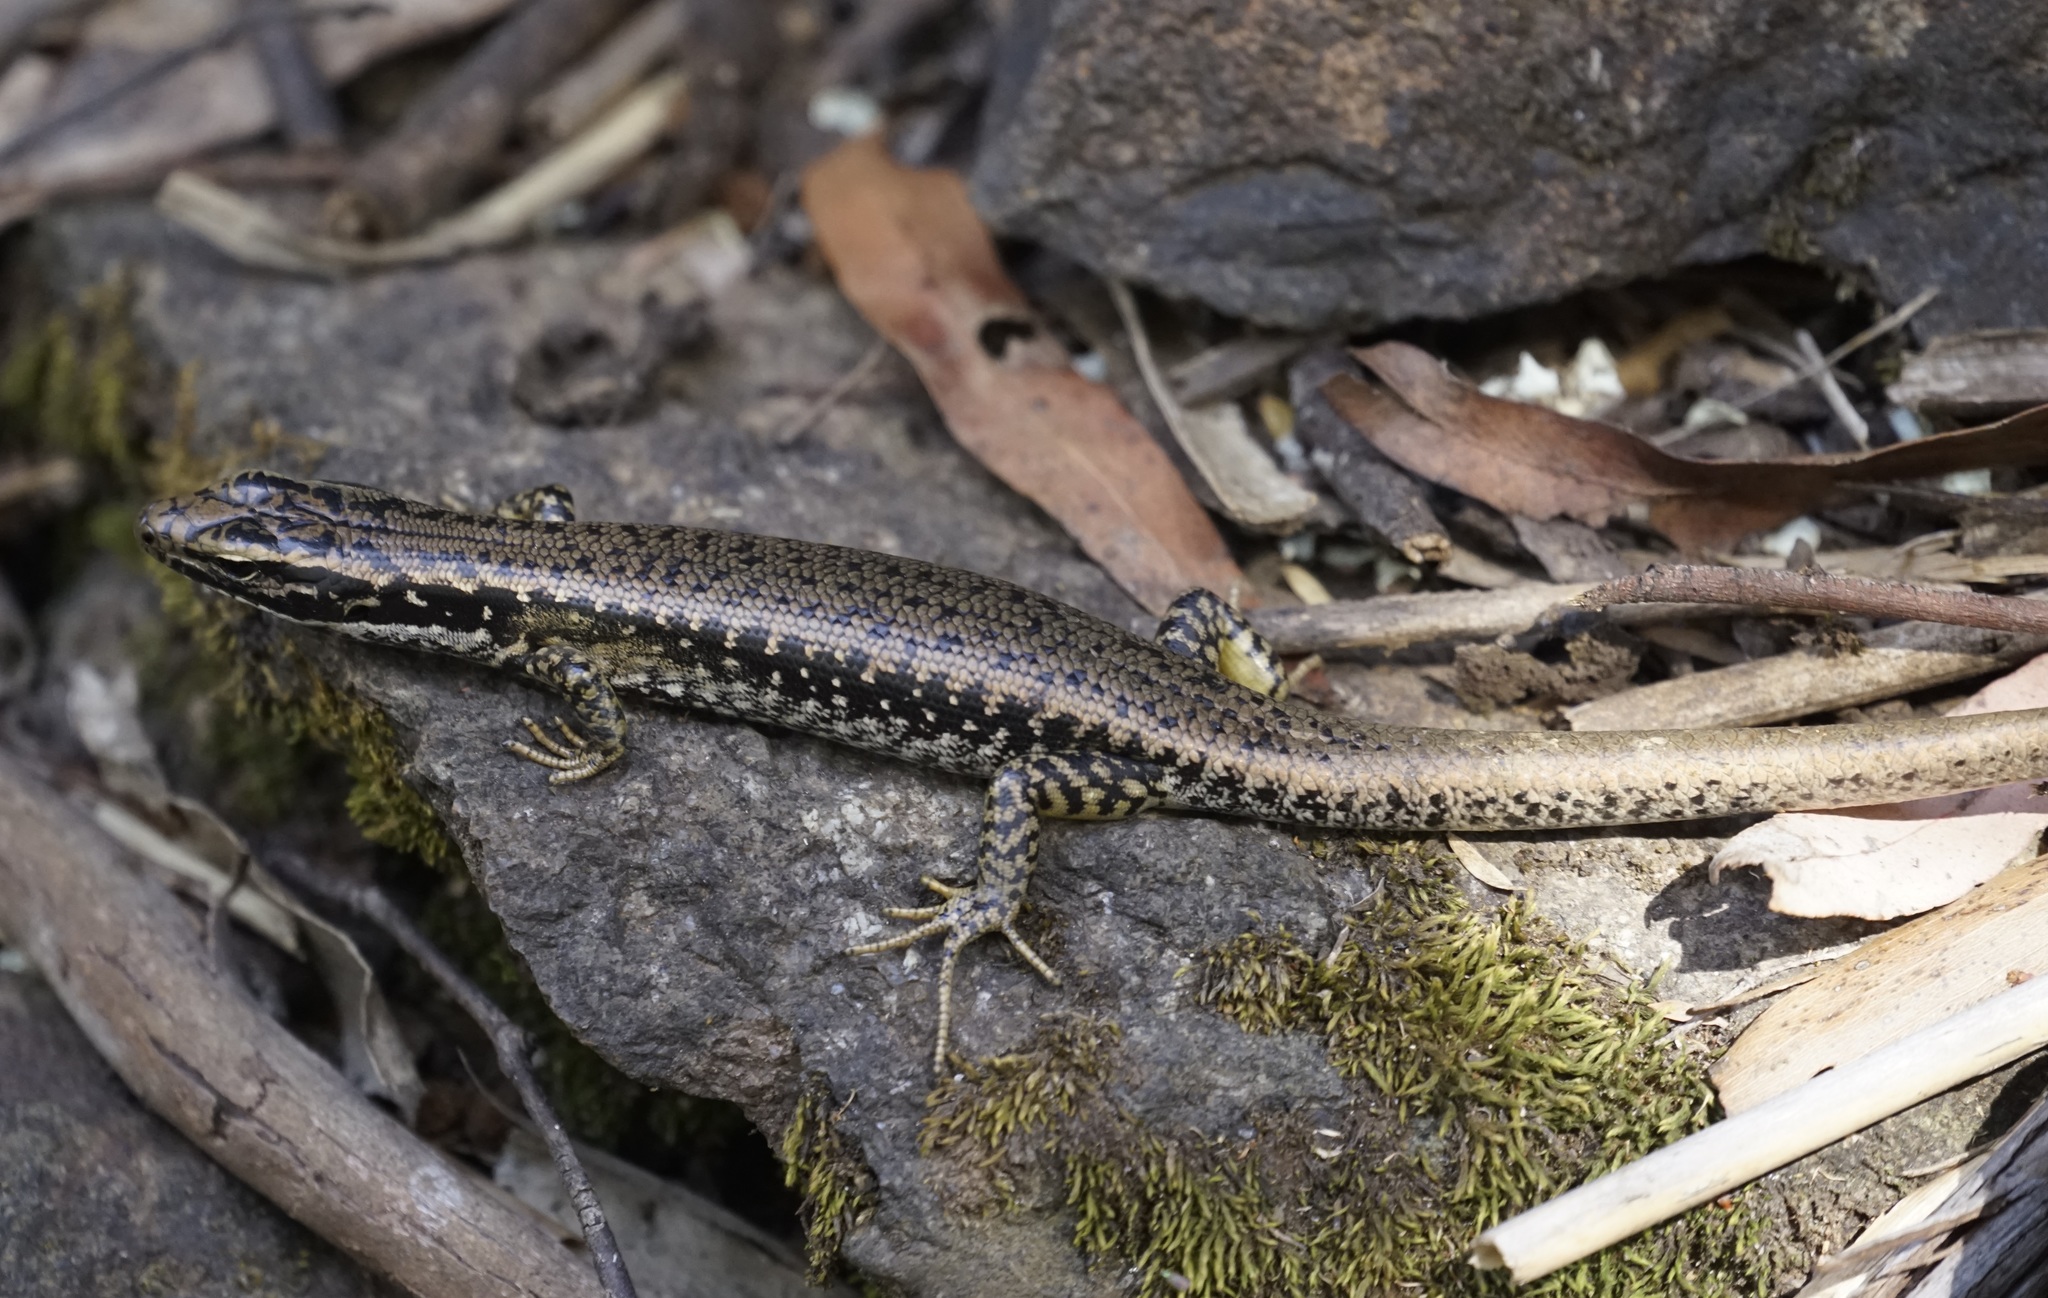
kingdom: Animalia
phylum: Chordata
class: Squamata
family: Scincidae
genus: Eulamprus
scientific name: Eulamprus heatwolei
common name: Warm-temperate water-skink
